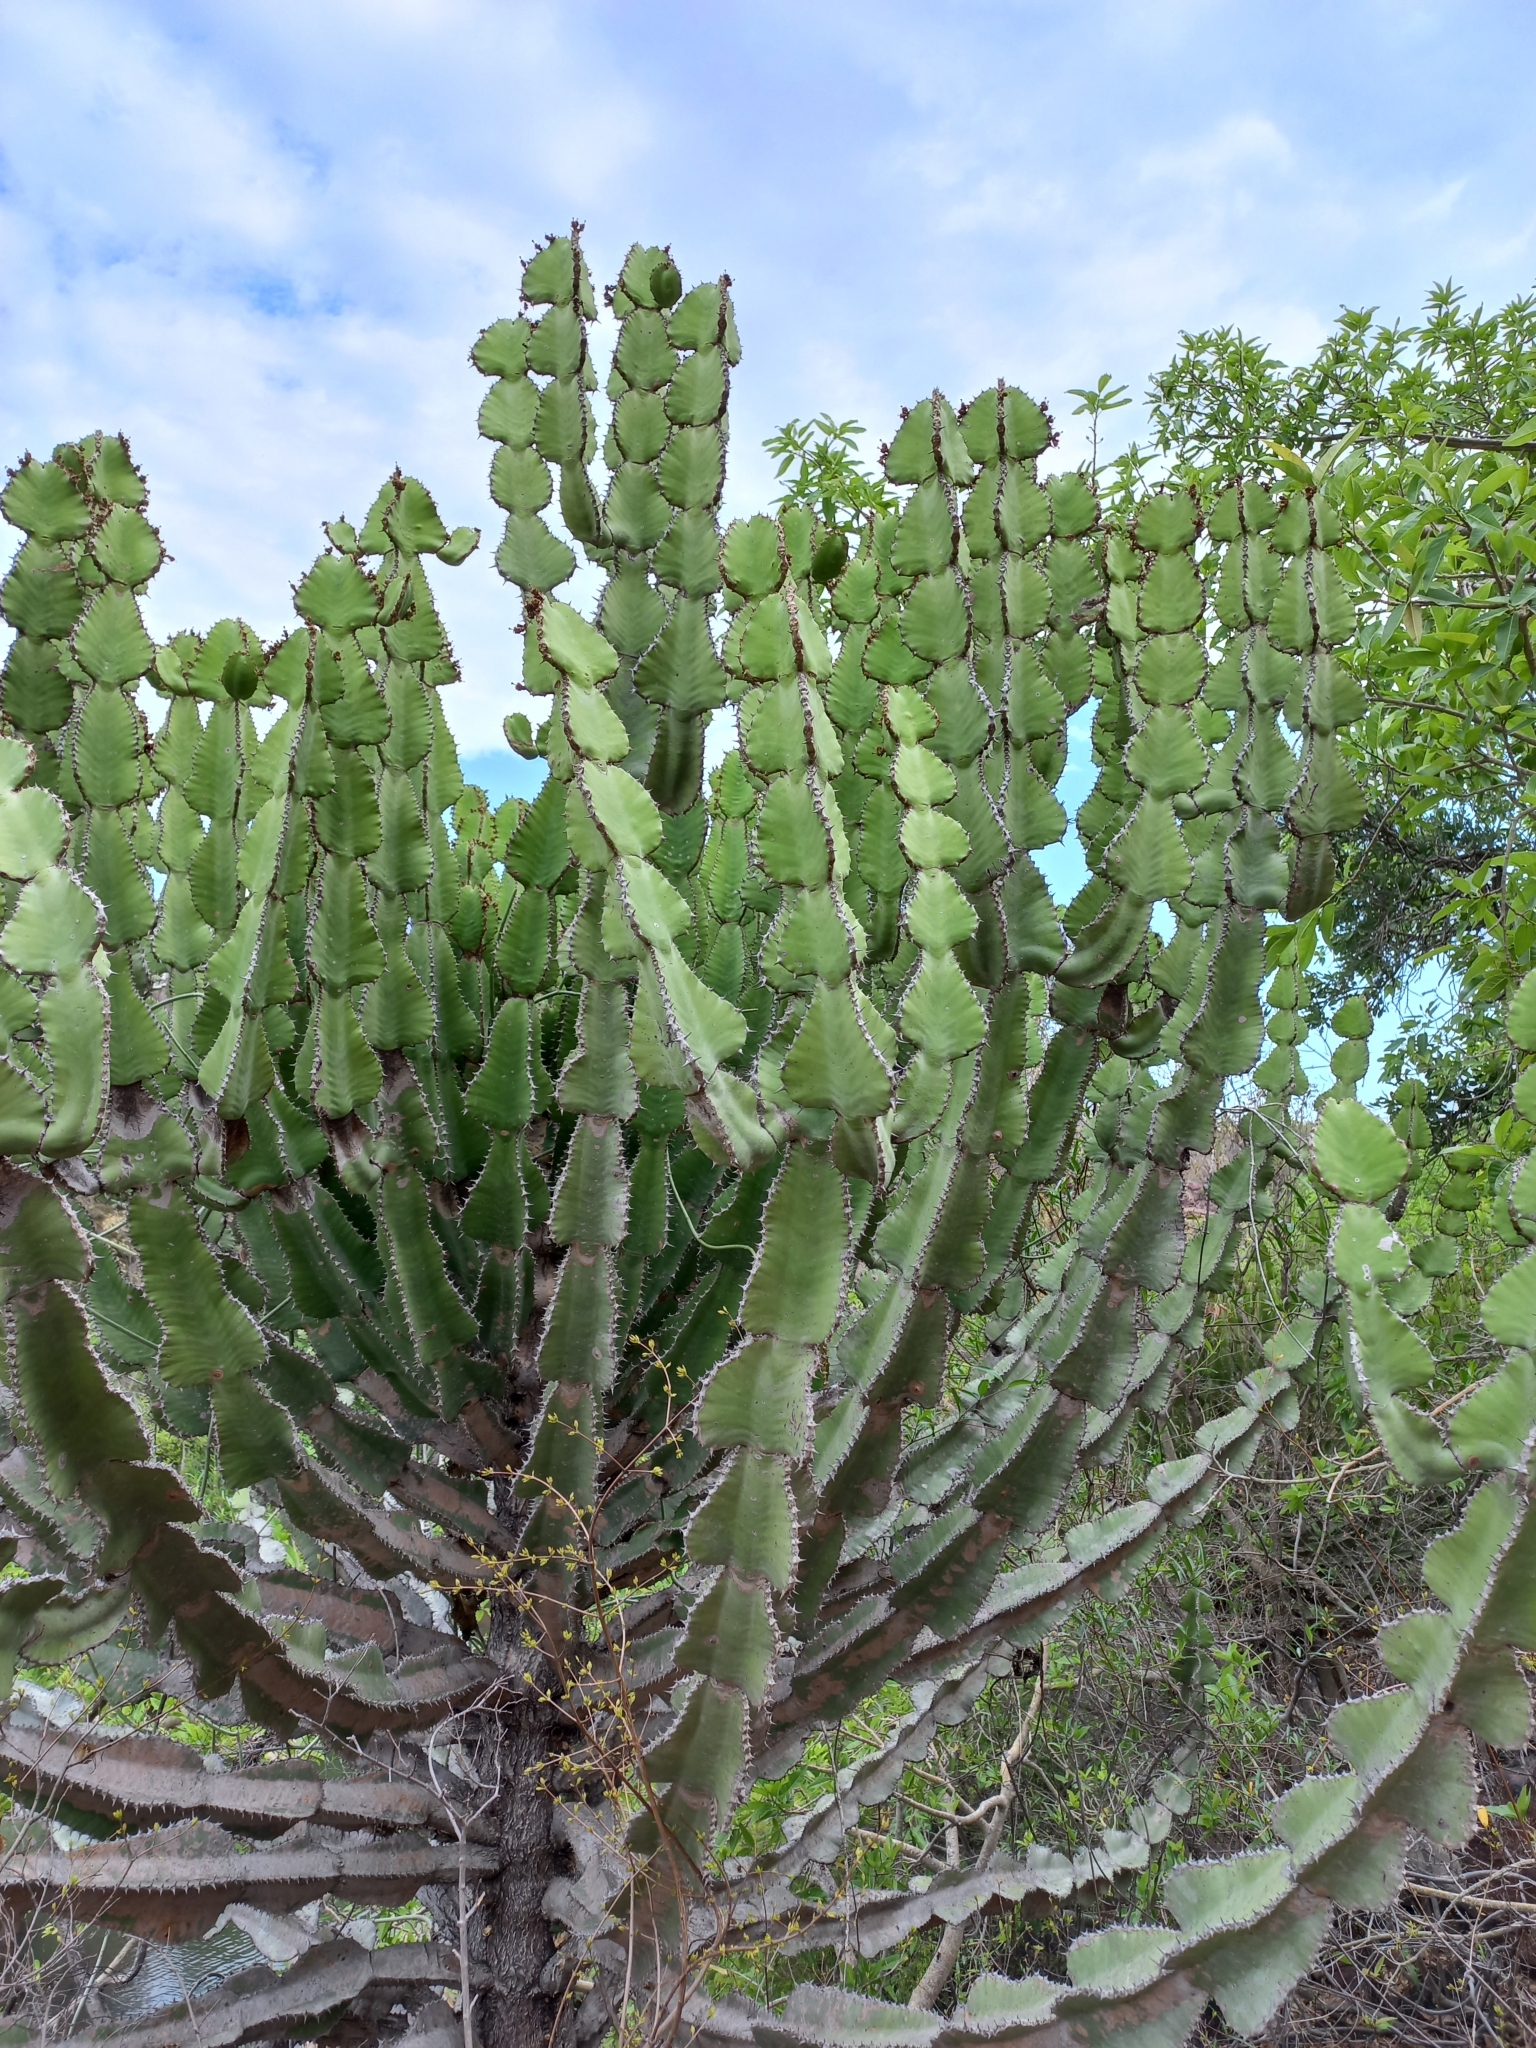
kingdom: Plantae
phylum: Tracheophyta
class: Magnoliopsida
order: Malpighiales
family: Euphorbiaceae
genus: Euphorbia
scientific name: Euphorbia cooperi
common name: Candelabra tree
